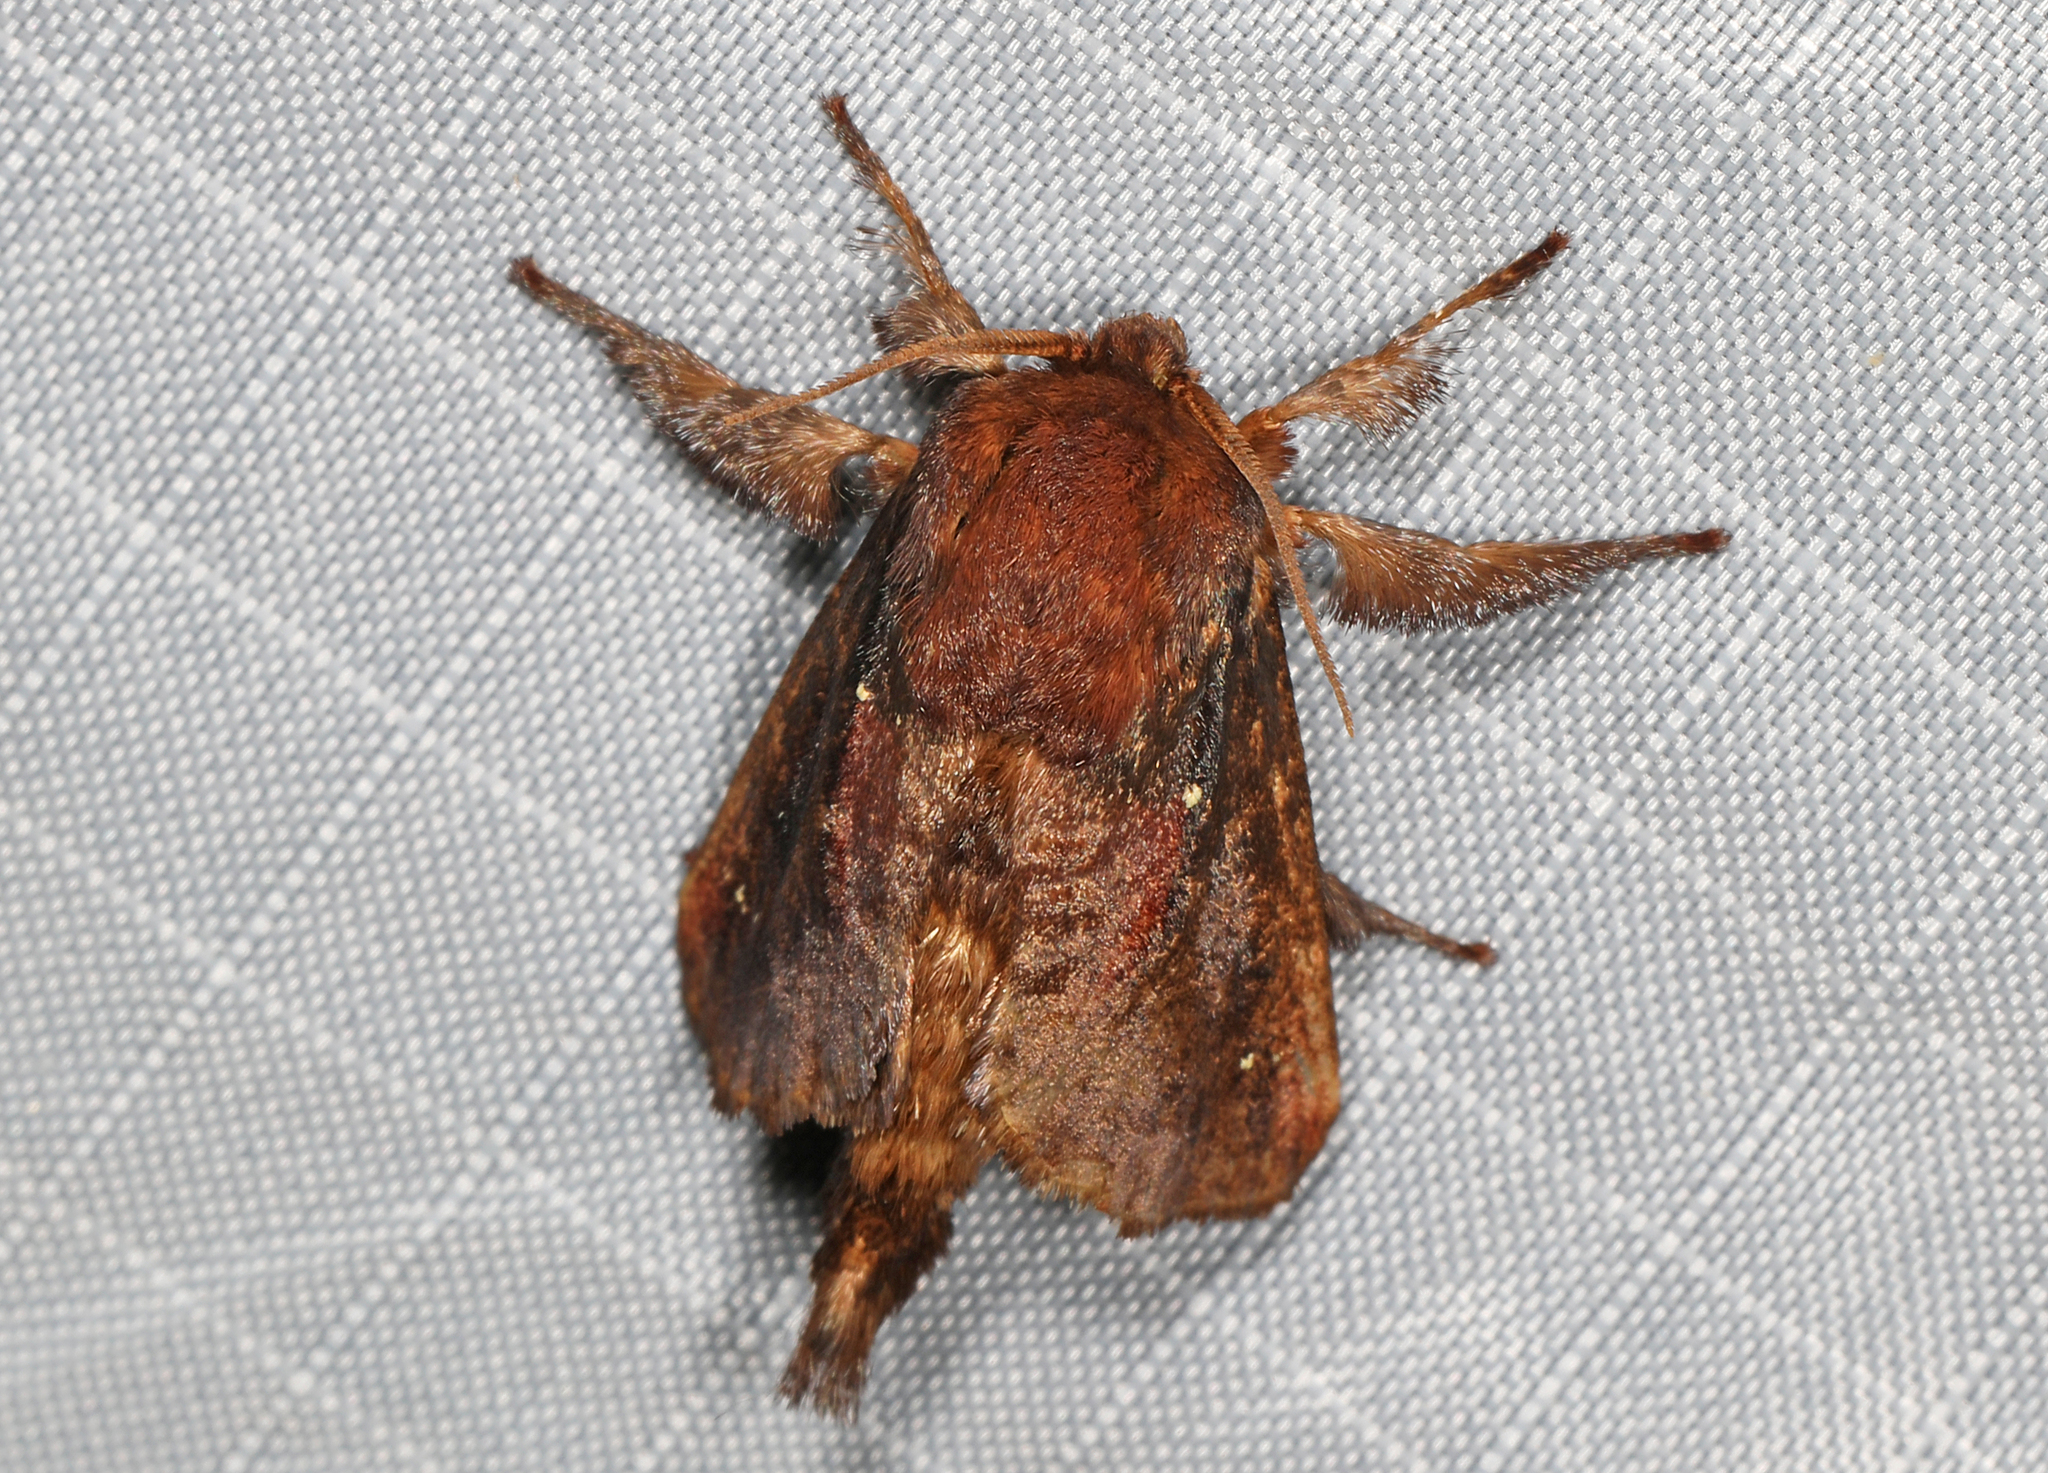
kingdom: Animalia
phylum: Arthropoda
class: Insecta
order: Lepidoptera
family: Limacodidae
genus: Acharia
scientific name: Acharia stimulea
